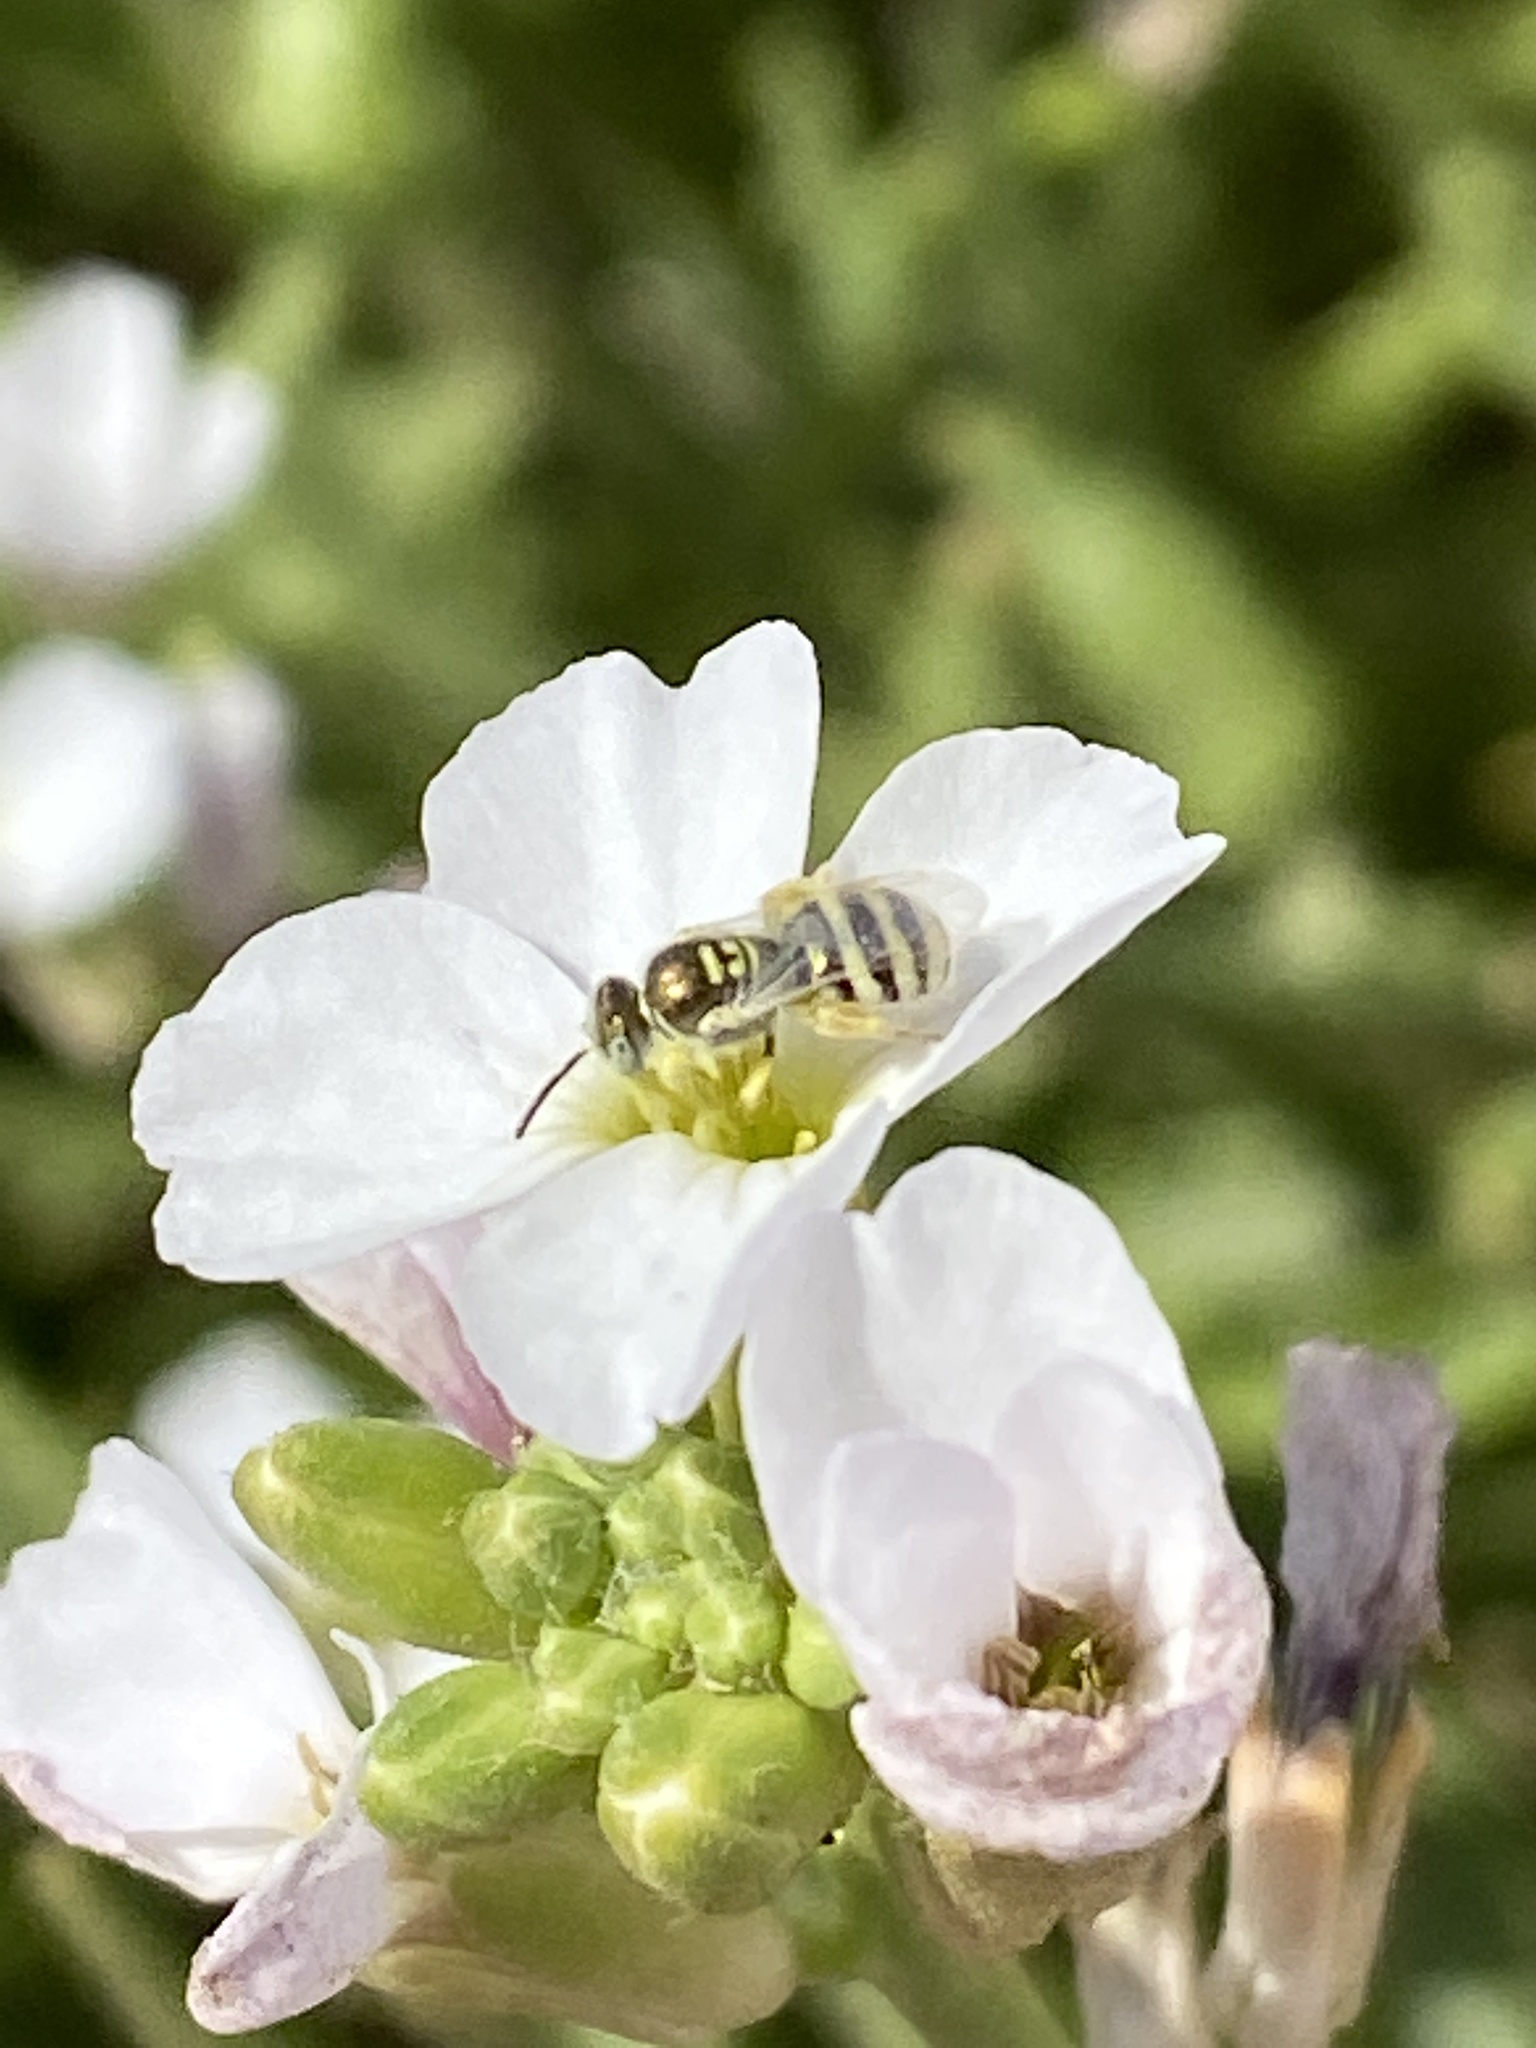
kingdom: Animalia
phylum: Arthropoda
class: Insecta
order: Hymenoptera
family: Halictidae
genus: Ceylalictus
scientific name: Ceylalictus variegatus
